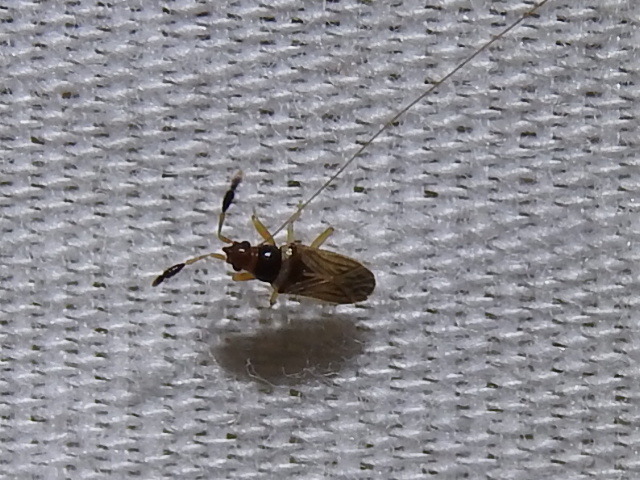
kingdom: Animalia
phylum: Arthropoda
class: Insecta
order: Hemiptera
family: Rhyparochromidae
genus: Ptochiomera
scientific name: Ptochiomera nodosa
